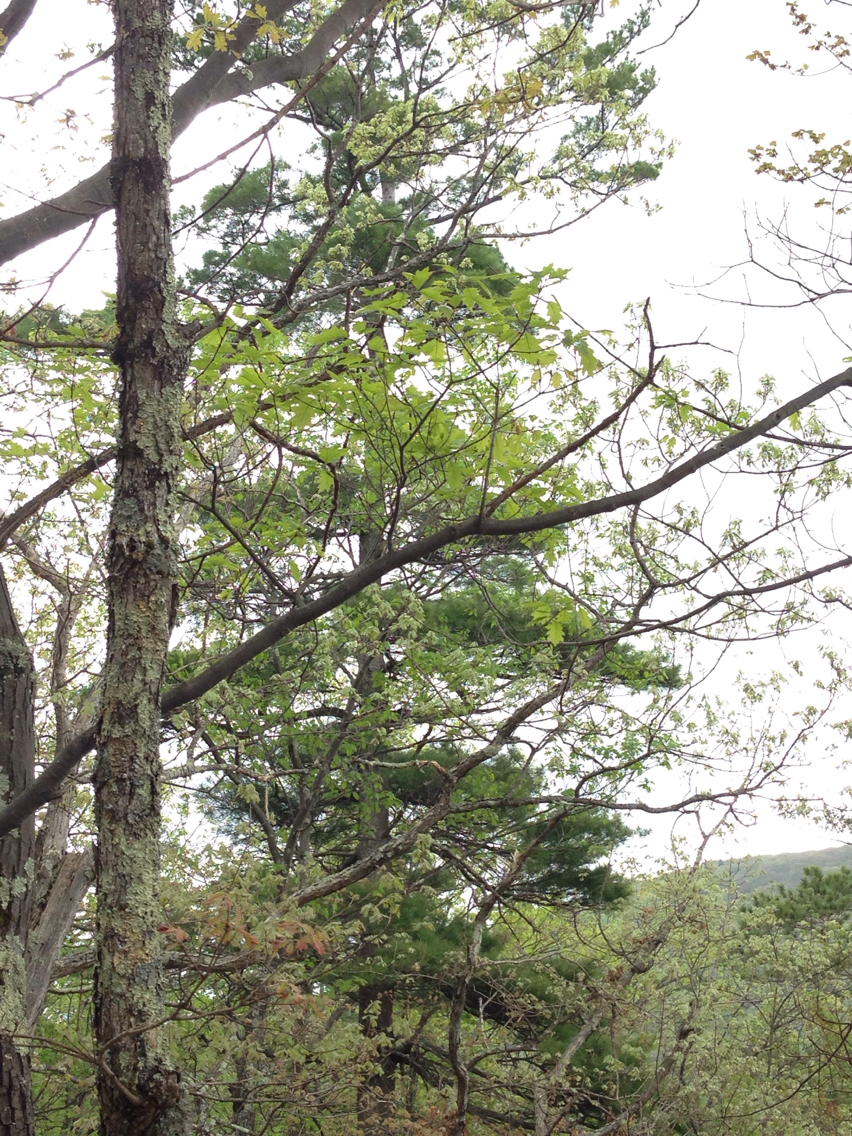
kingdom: Plantae
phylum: Tracheophyta
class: Pinopsida
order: Pinales
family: Pinaceae
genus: Pinus
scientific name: Pinus strobus
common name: Weymouth pine
